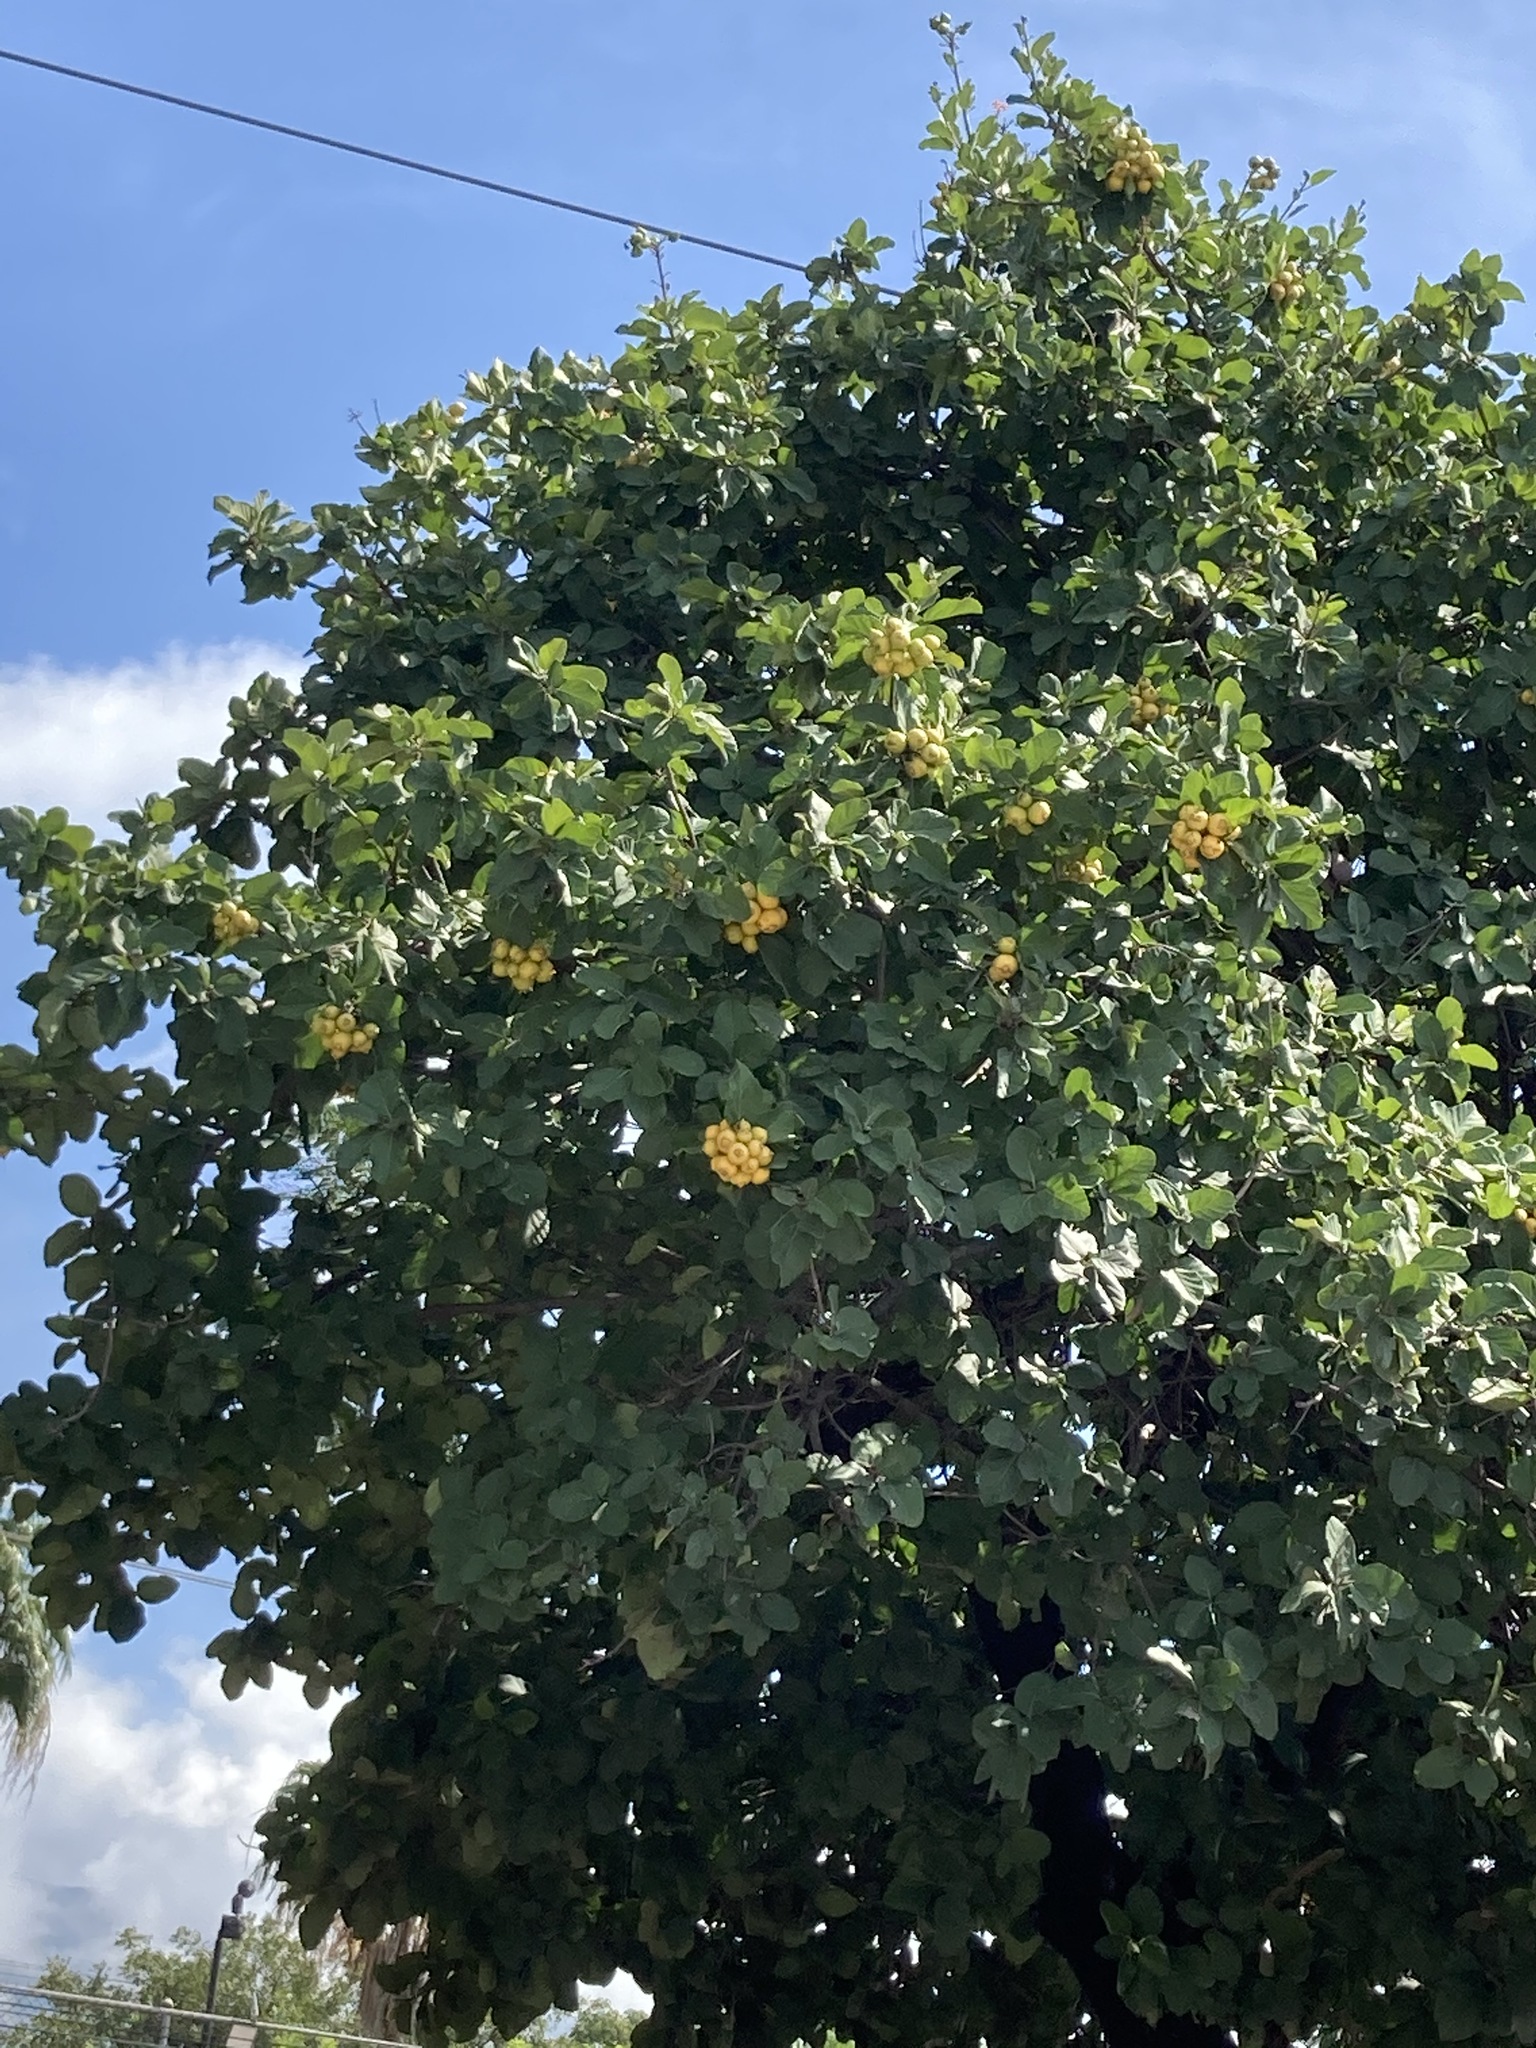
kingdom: Plantae
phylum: Tracheophyta
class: Magnoliopsida
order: Boraginales
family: Cordiaceae
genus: Cordia
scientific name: Cordia dodecandra
